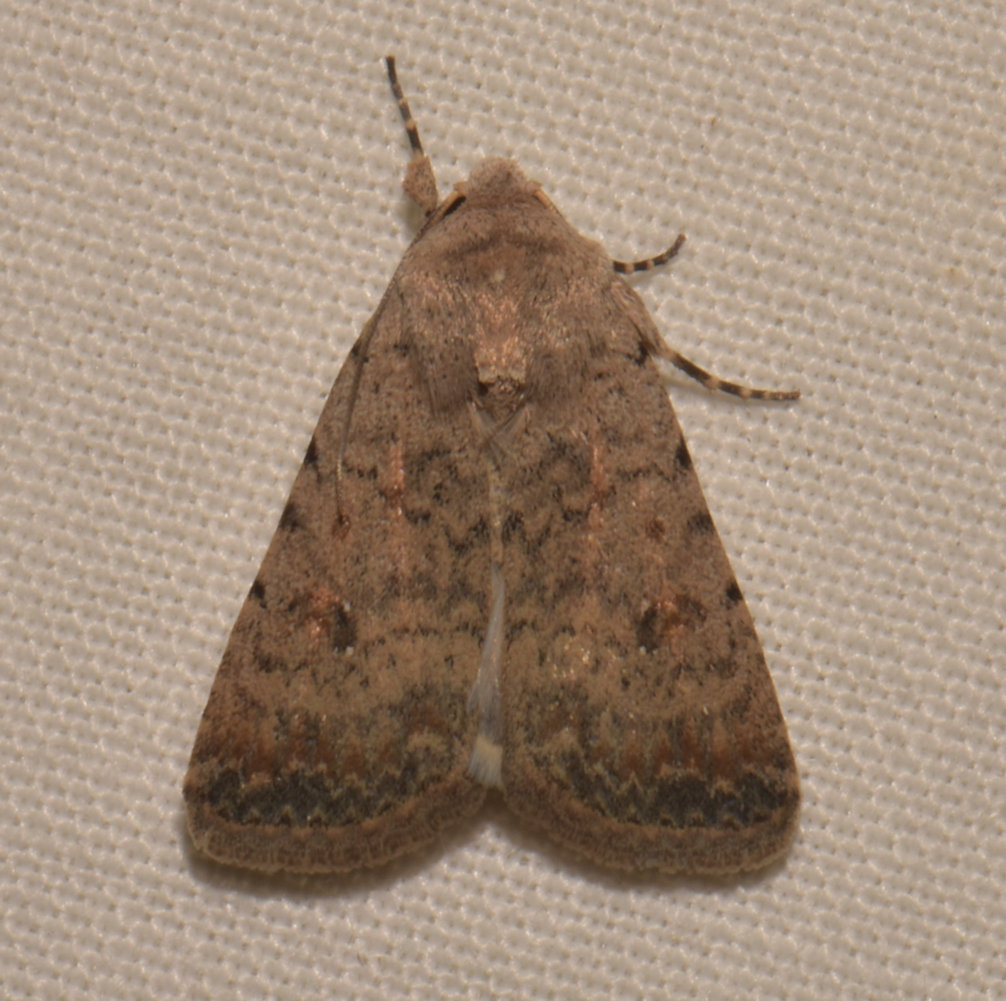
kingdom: Animalia
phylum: Arthropoda
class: Insecta
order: Lepidoptera
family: Noctuidae
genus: Caradrina
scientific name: Caradrina montana
